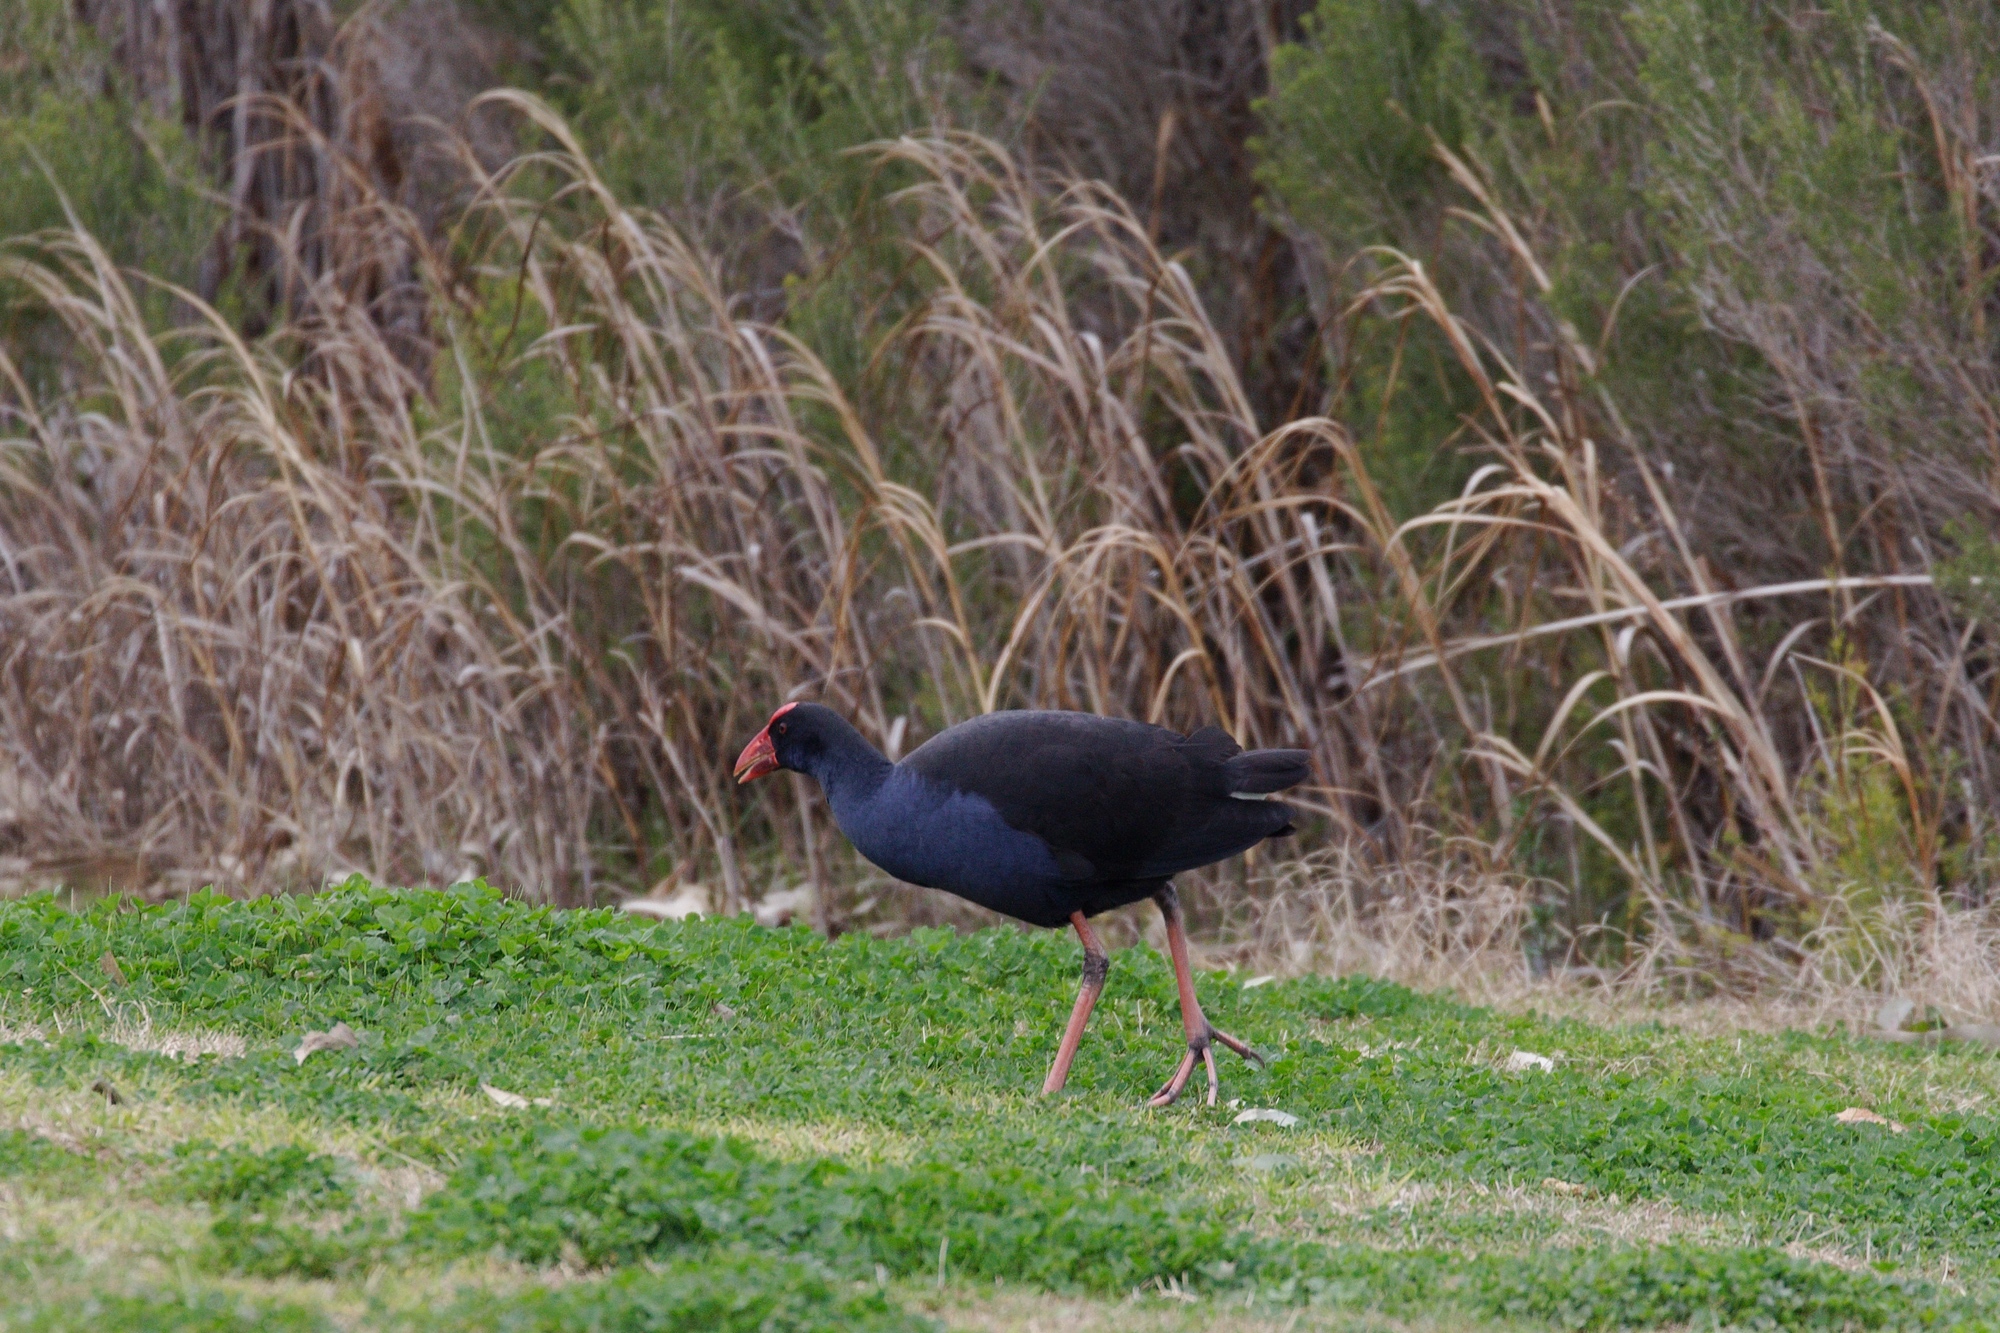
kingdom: Animalia
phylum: Chordata
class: Aves
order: Gruiformes
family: Rallidae
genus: Porphyrio
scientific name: Porphyrio melanotus
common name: Australasian swamphen
